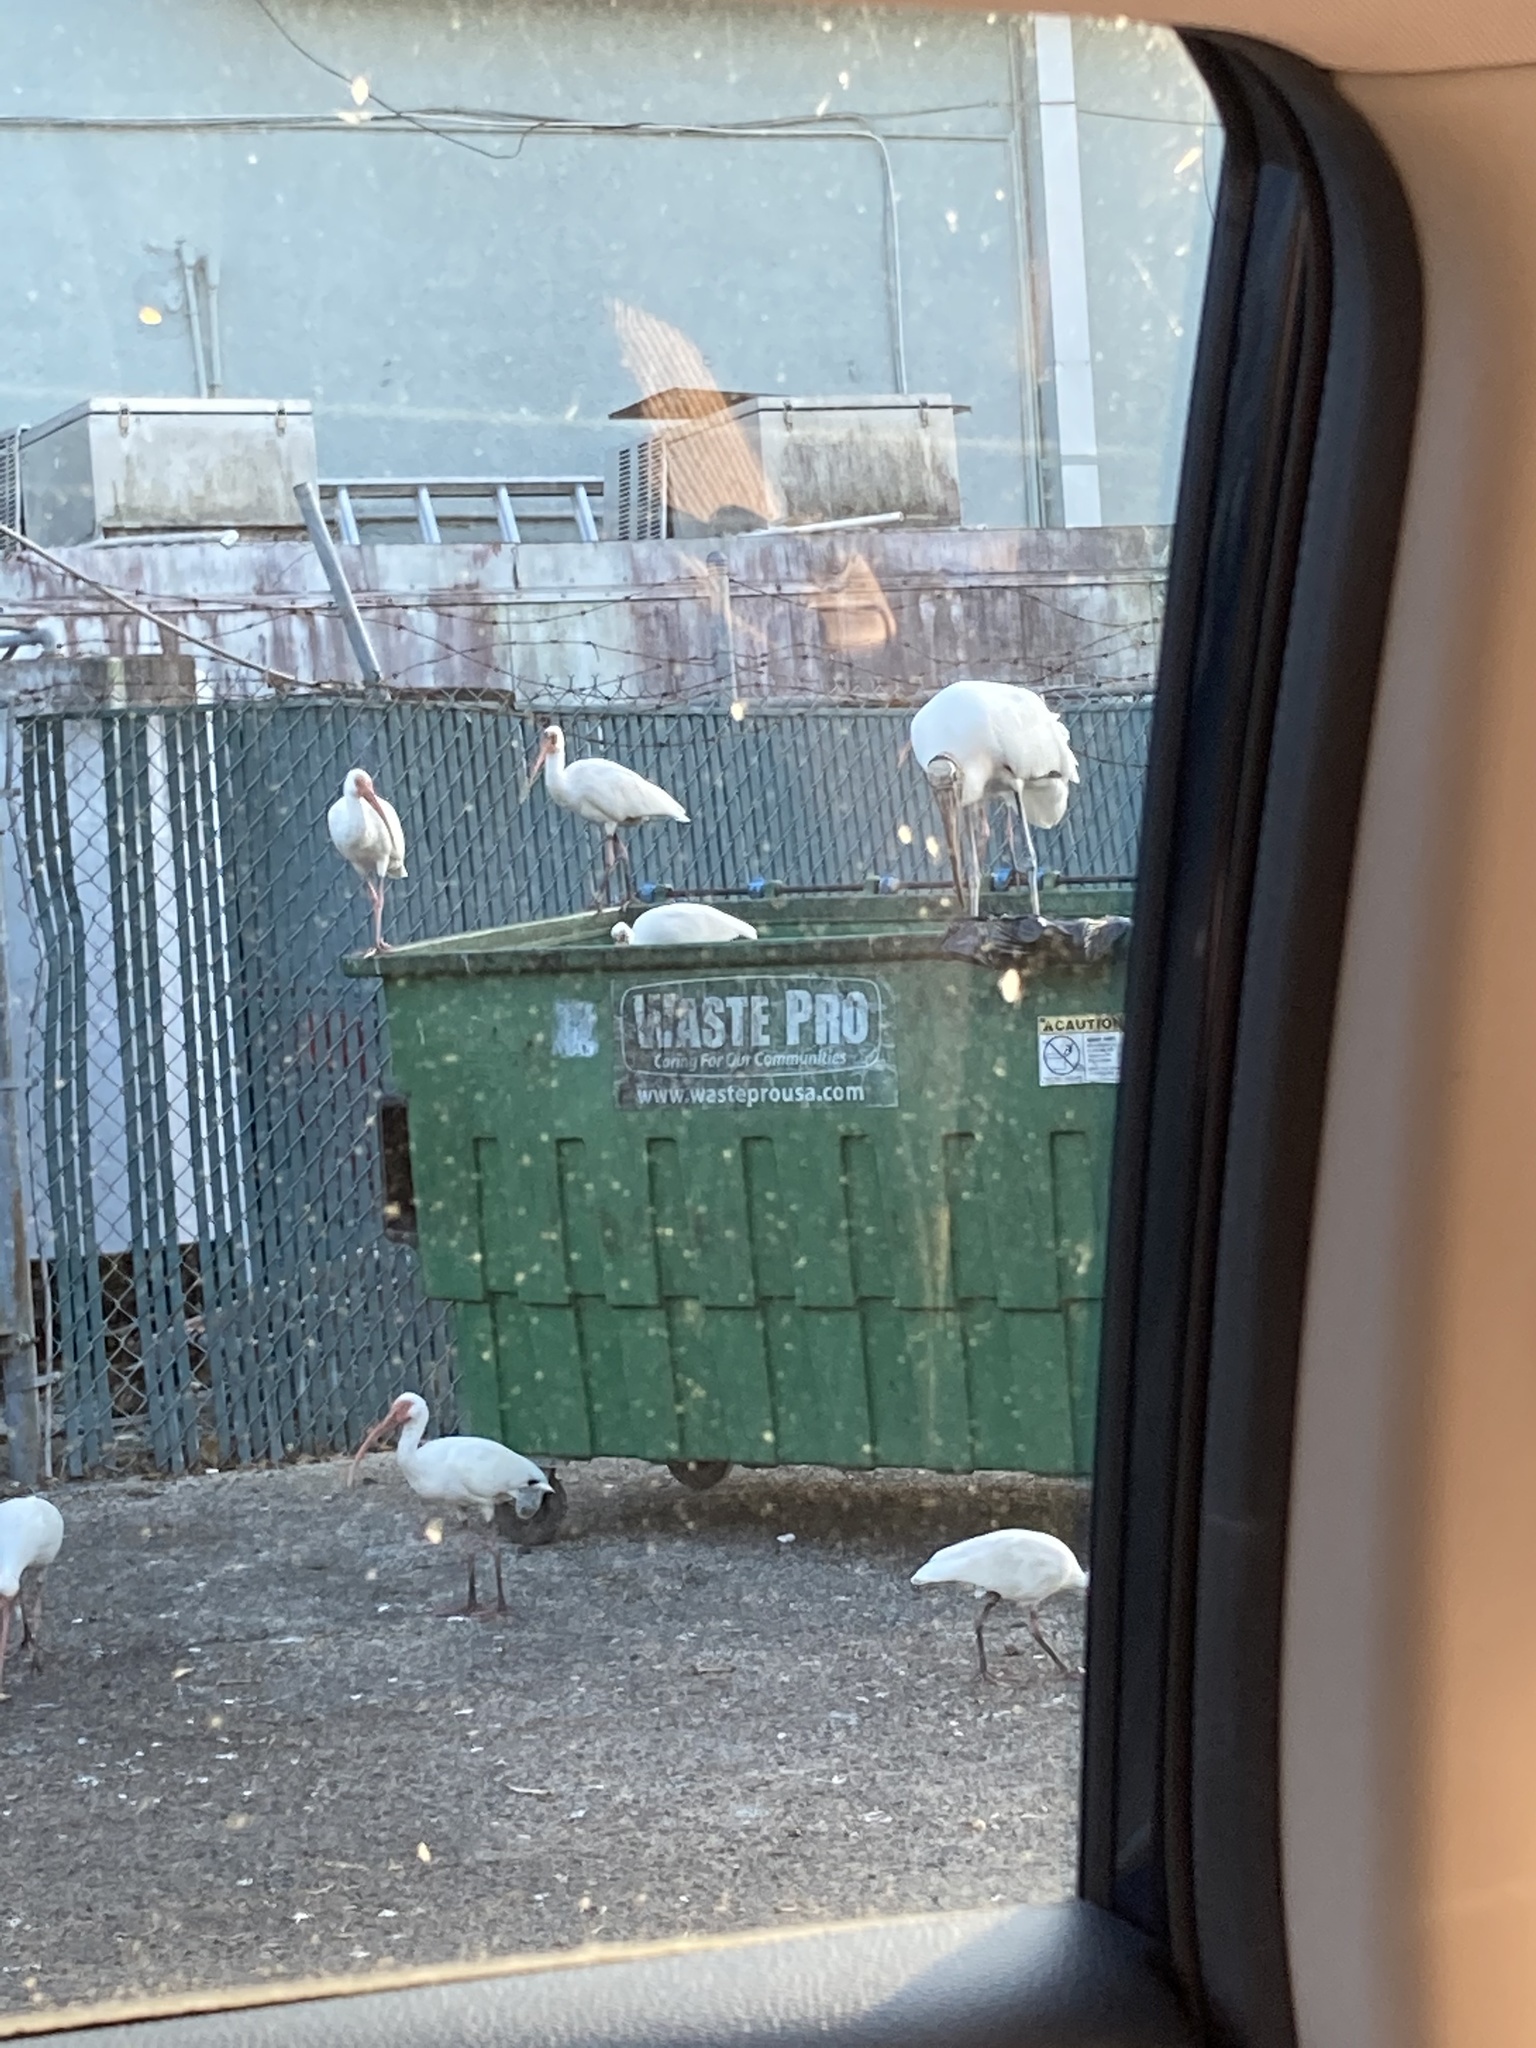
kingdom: Animalia
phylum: Chordata
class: Aves
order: Pelecaniformes
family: Threskiornithidae
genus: Eudocimus
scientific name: Eudocimus albus
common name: White ibis
